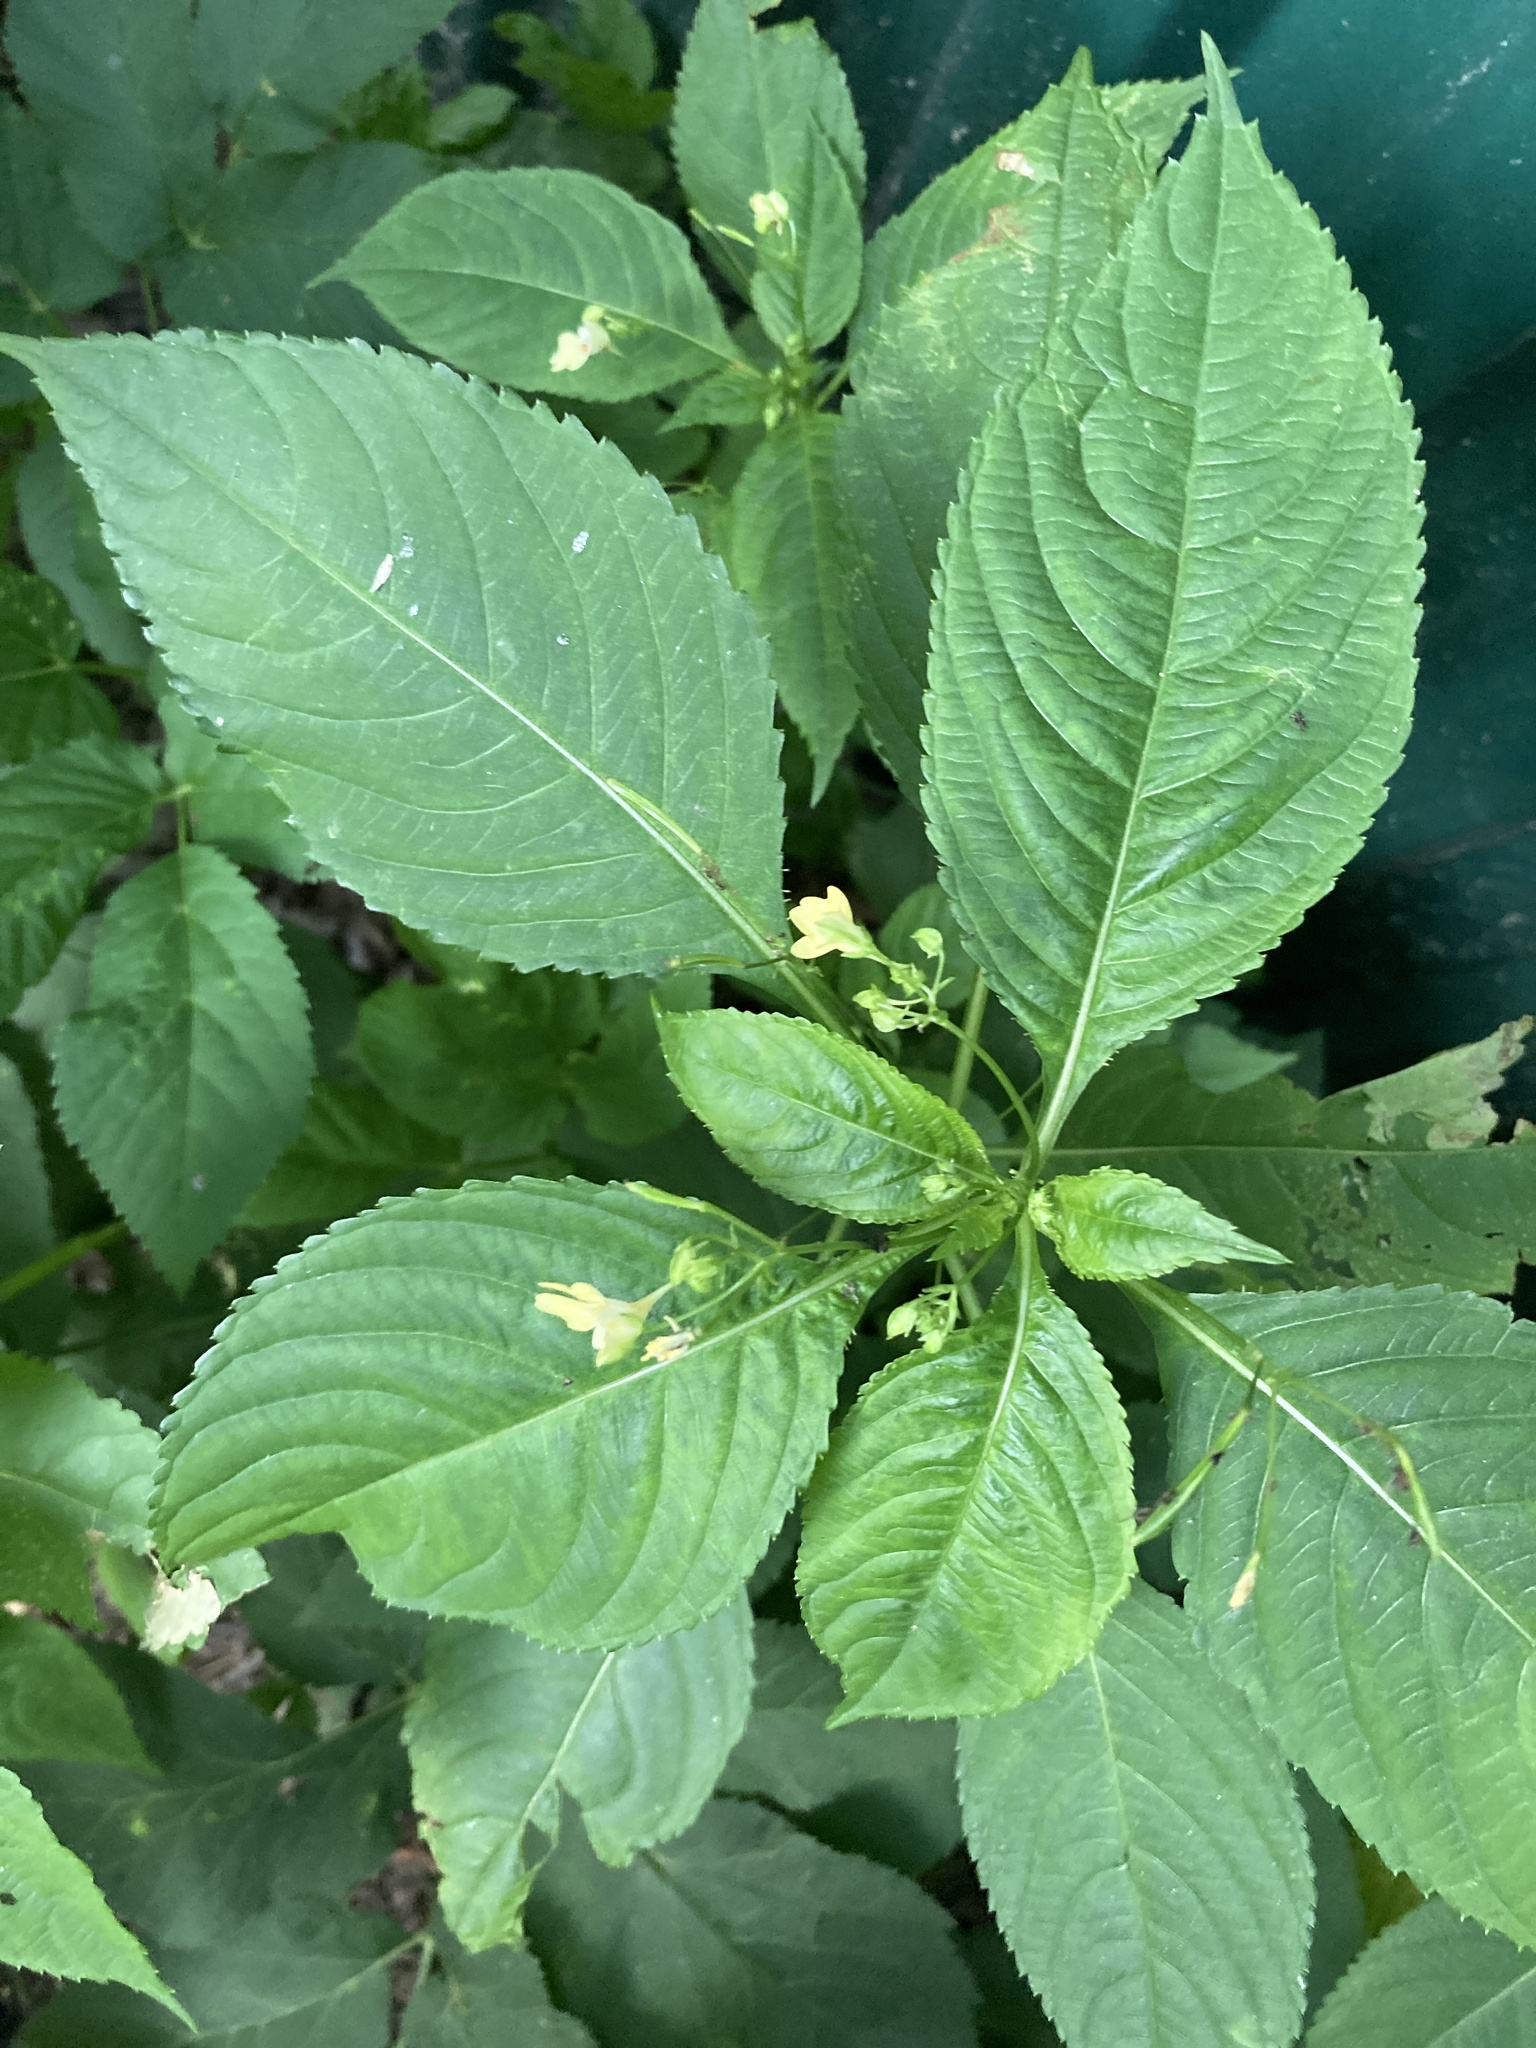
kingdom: Plantae
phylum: Tracheophyta
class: Magnoliopsida
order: Ericales
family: Balsaminaceae
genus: Impatiens
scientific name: Impatiens parviflora
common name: Small balsam
